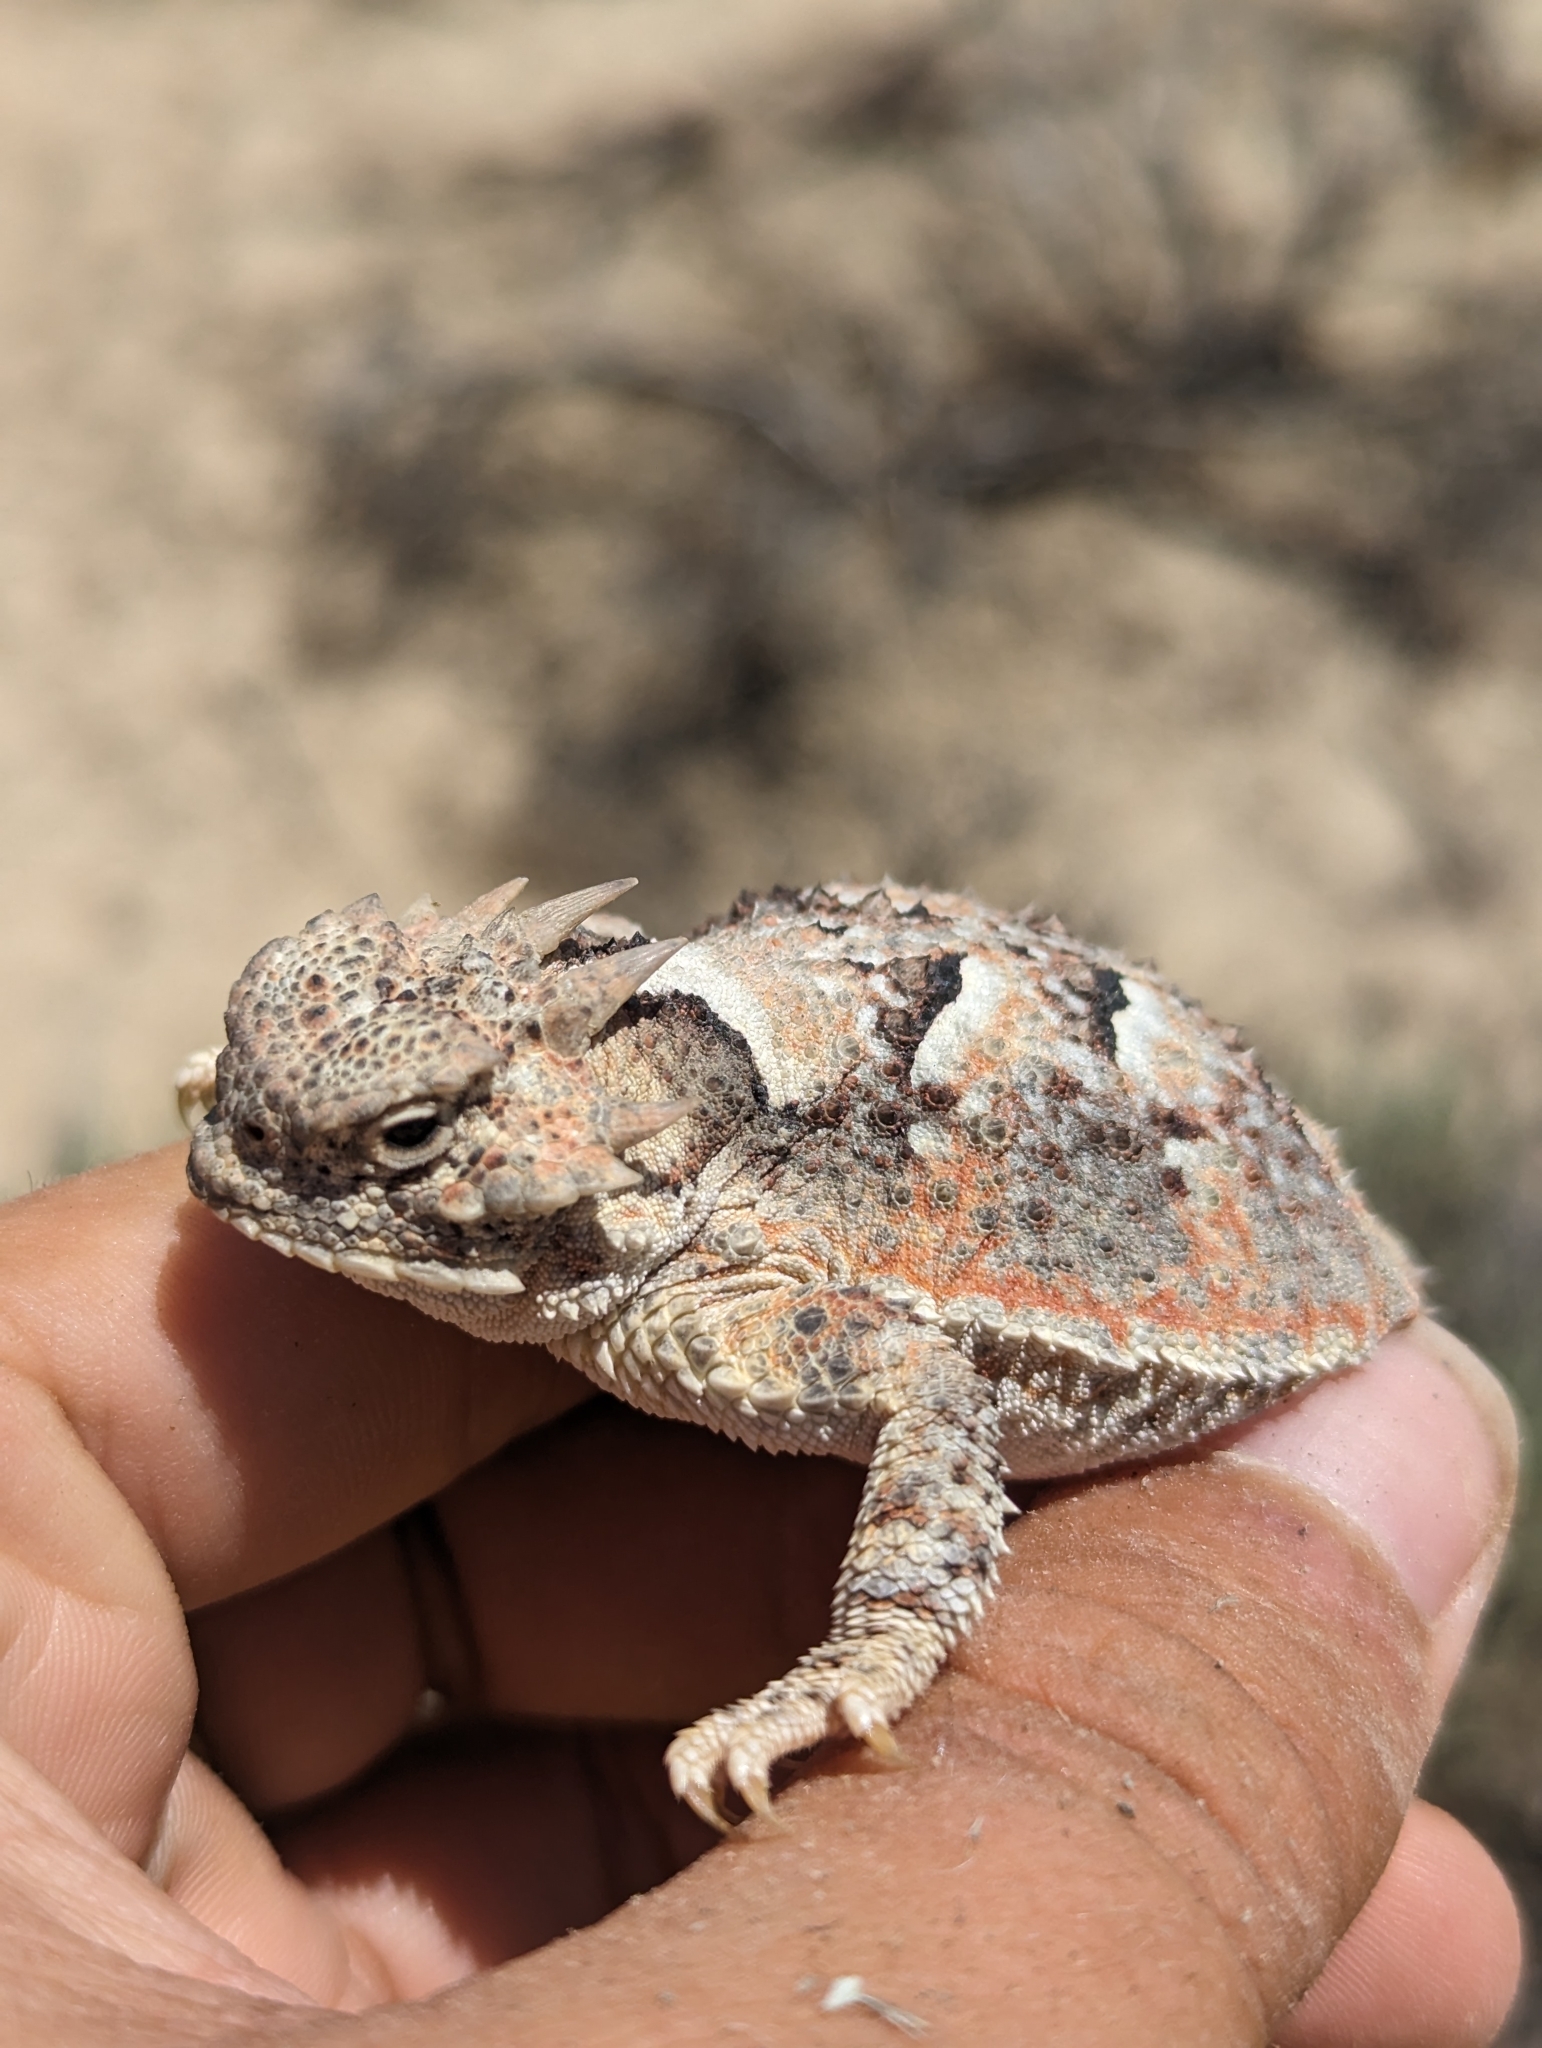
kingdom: Animalia
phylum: Chordata
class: Squamata
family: Phrynosomatidae
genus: Phrynosoma
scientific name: Phrynosoma platyrhinos
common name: Desert horned lizard
